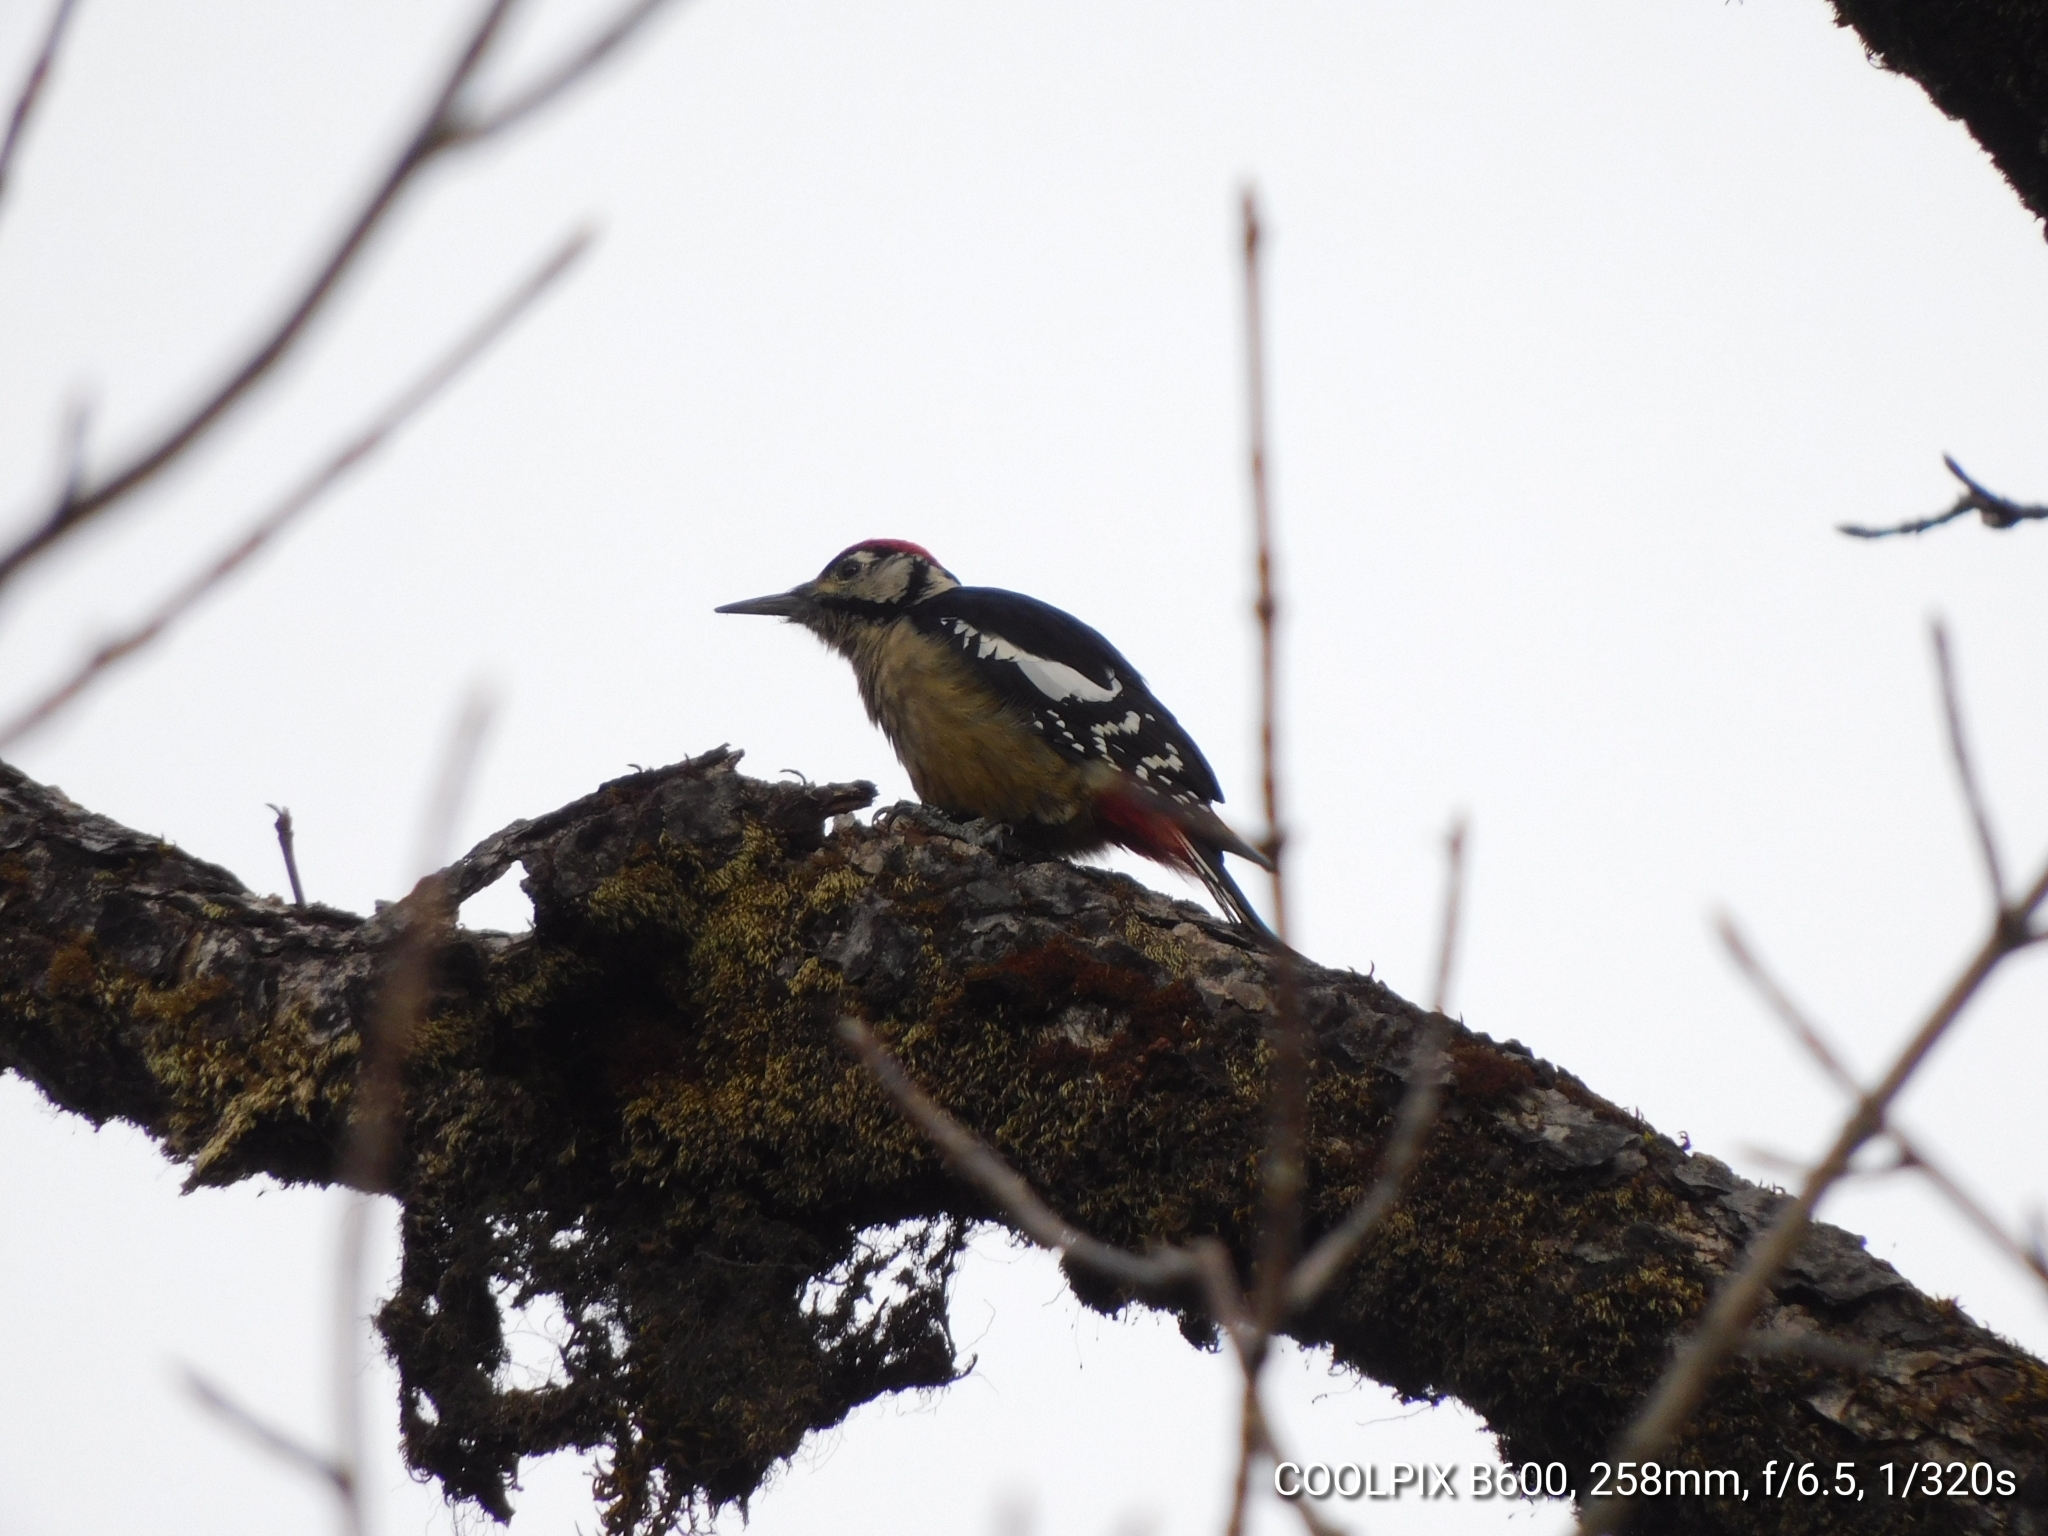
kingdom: Animalia
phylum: Chordata
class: Aves
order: Piciformes
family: Picidae
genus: Dendrocopos
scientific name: Dendrocopos himalayensis
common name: Himalayan woodpecker
